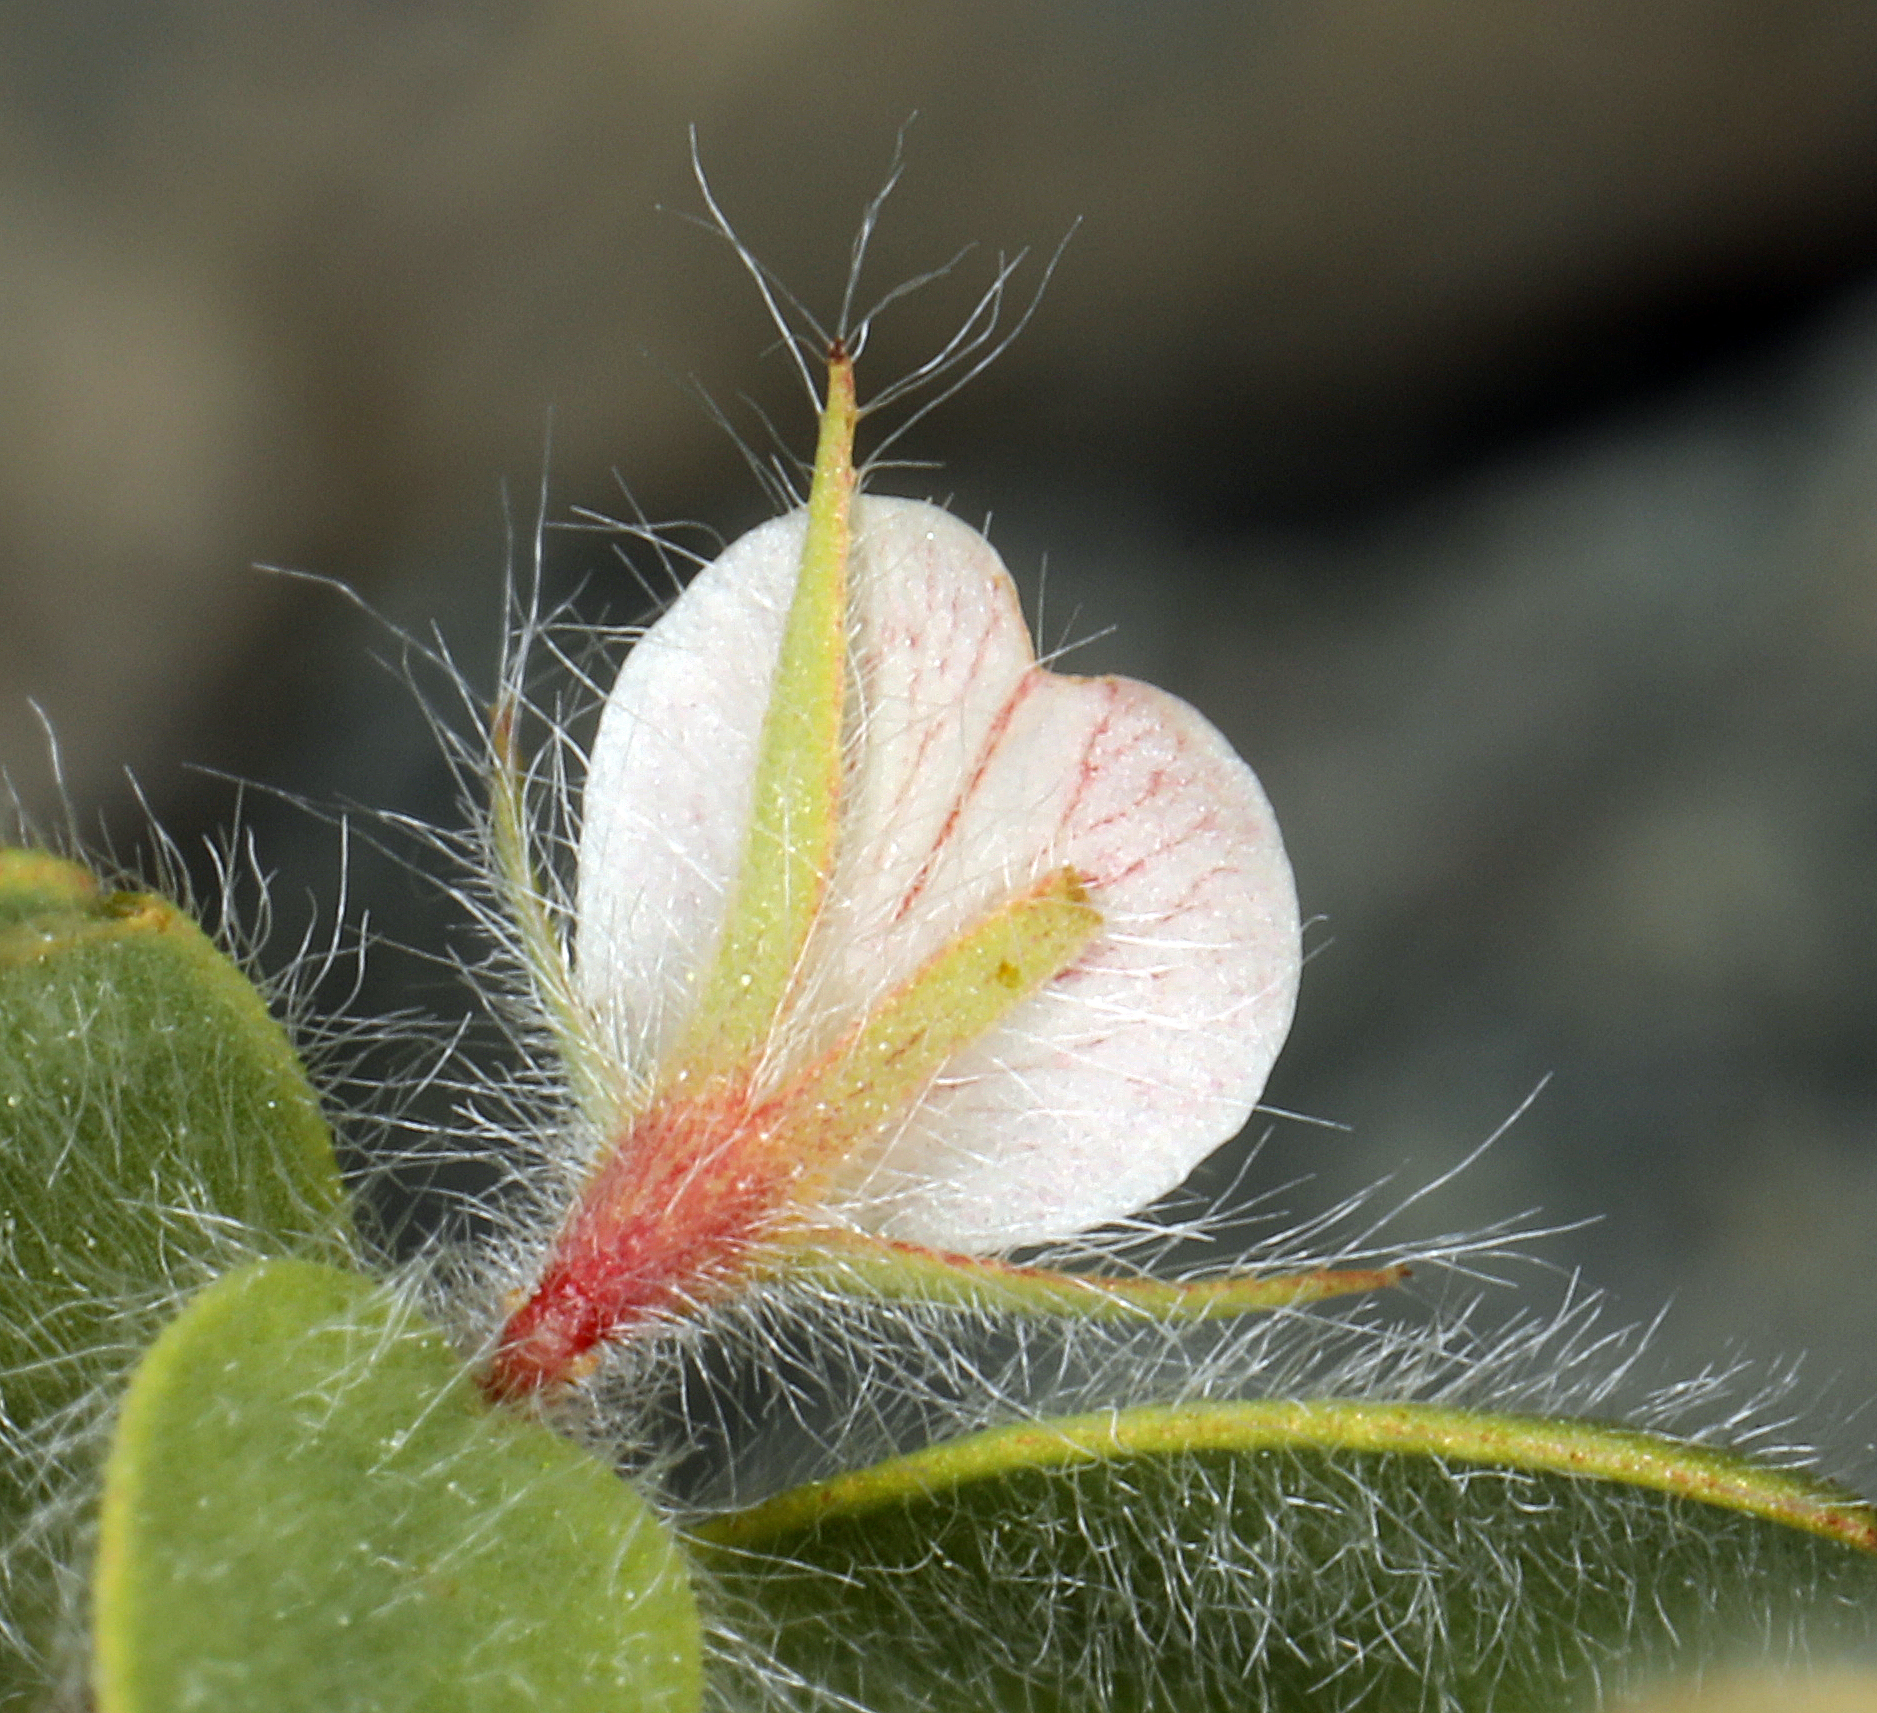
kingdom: Plantae
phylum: Tracheophyta
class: Magnoliopsida
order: Fabales
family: Fabaceae
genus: Acmispon
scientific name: Acmispon americanus
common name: American bird's-foot trefoil
